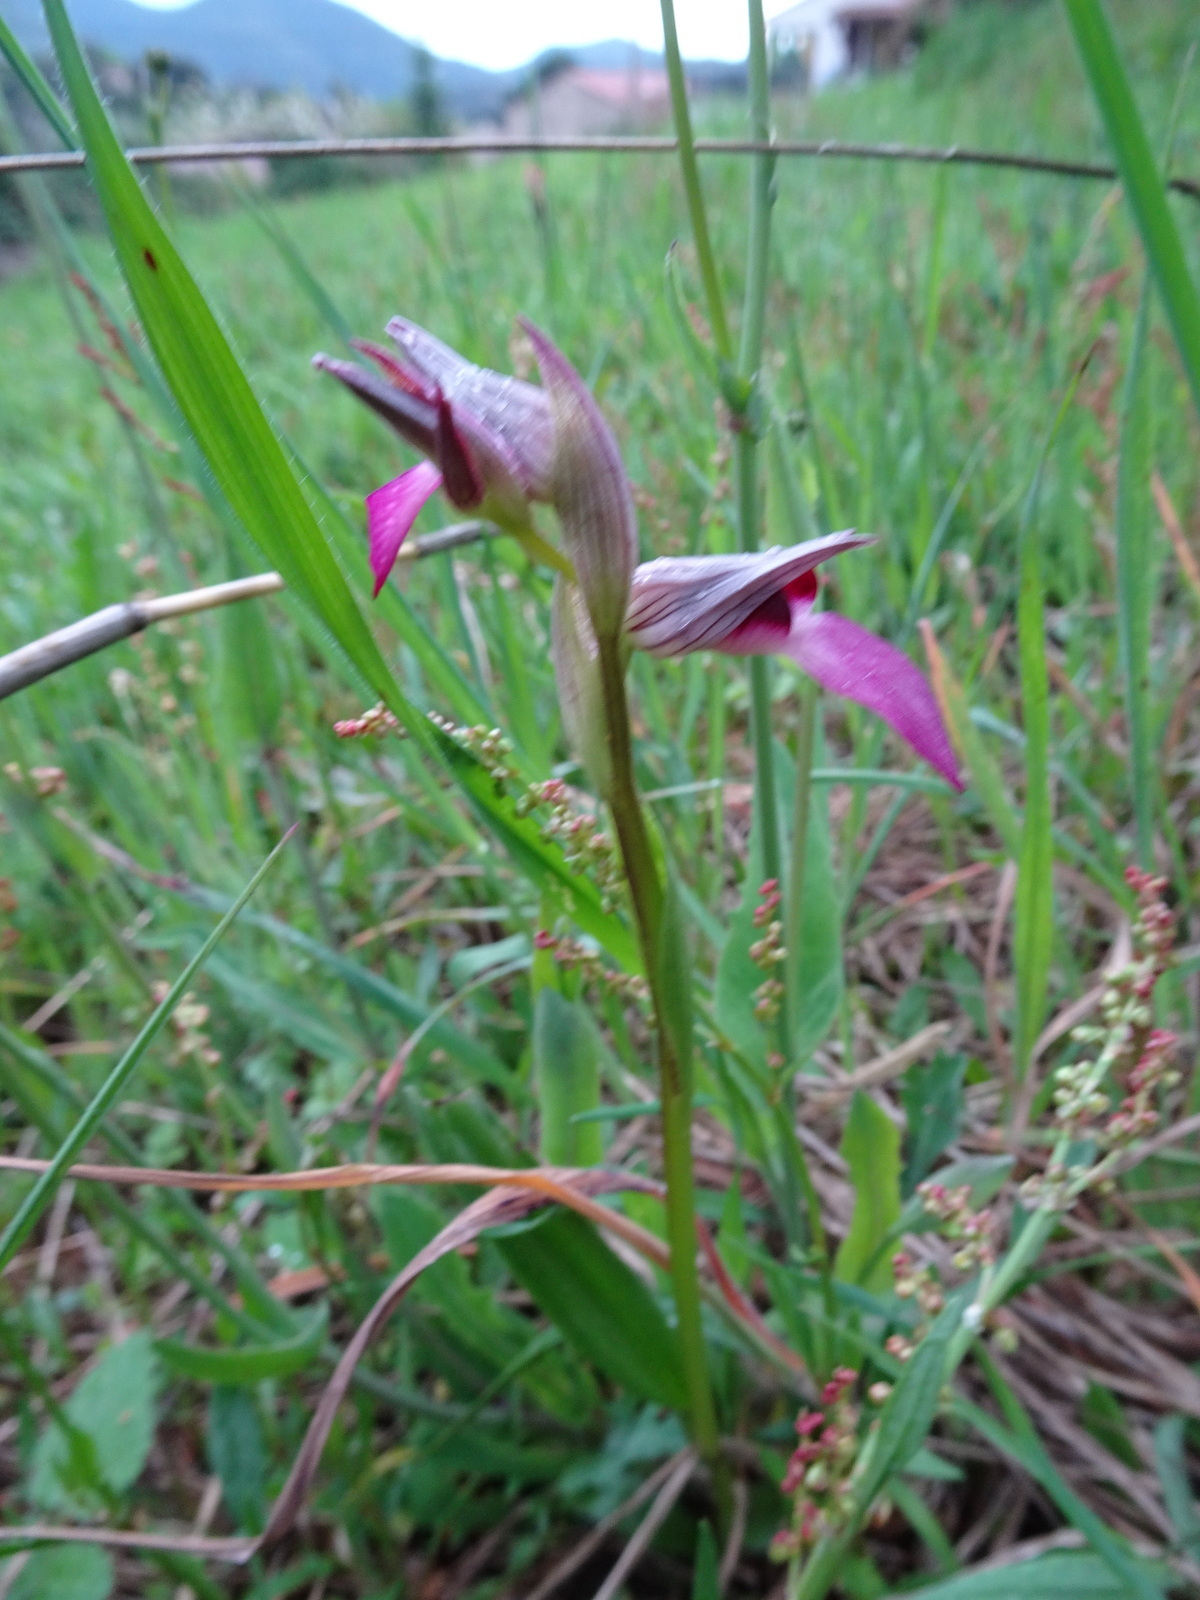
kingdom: Plantae
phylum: Tracheophyta
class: Liliopsida
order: Asparagales
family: Orchidaceae
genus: Serapias
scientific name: Serapias lingua
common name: Tongue-orchid
